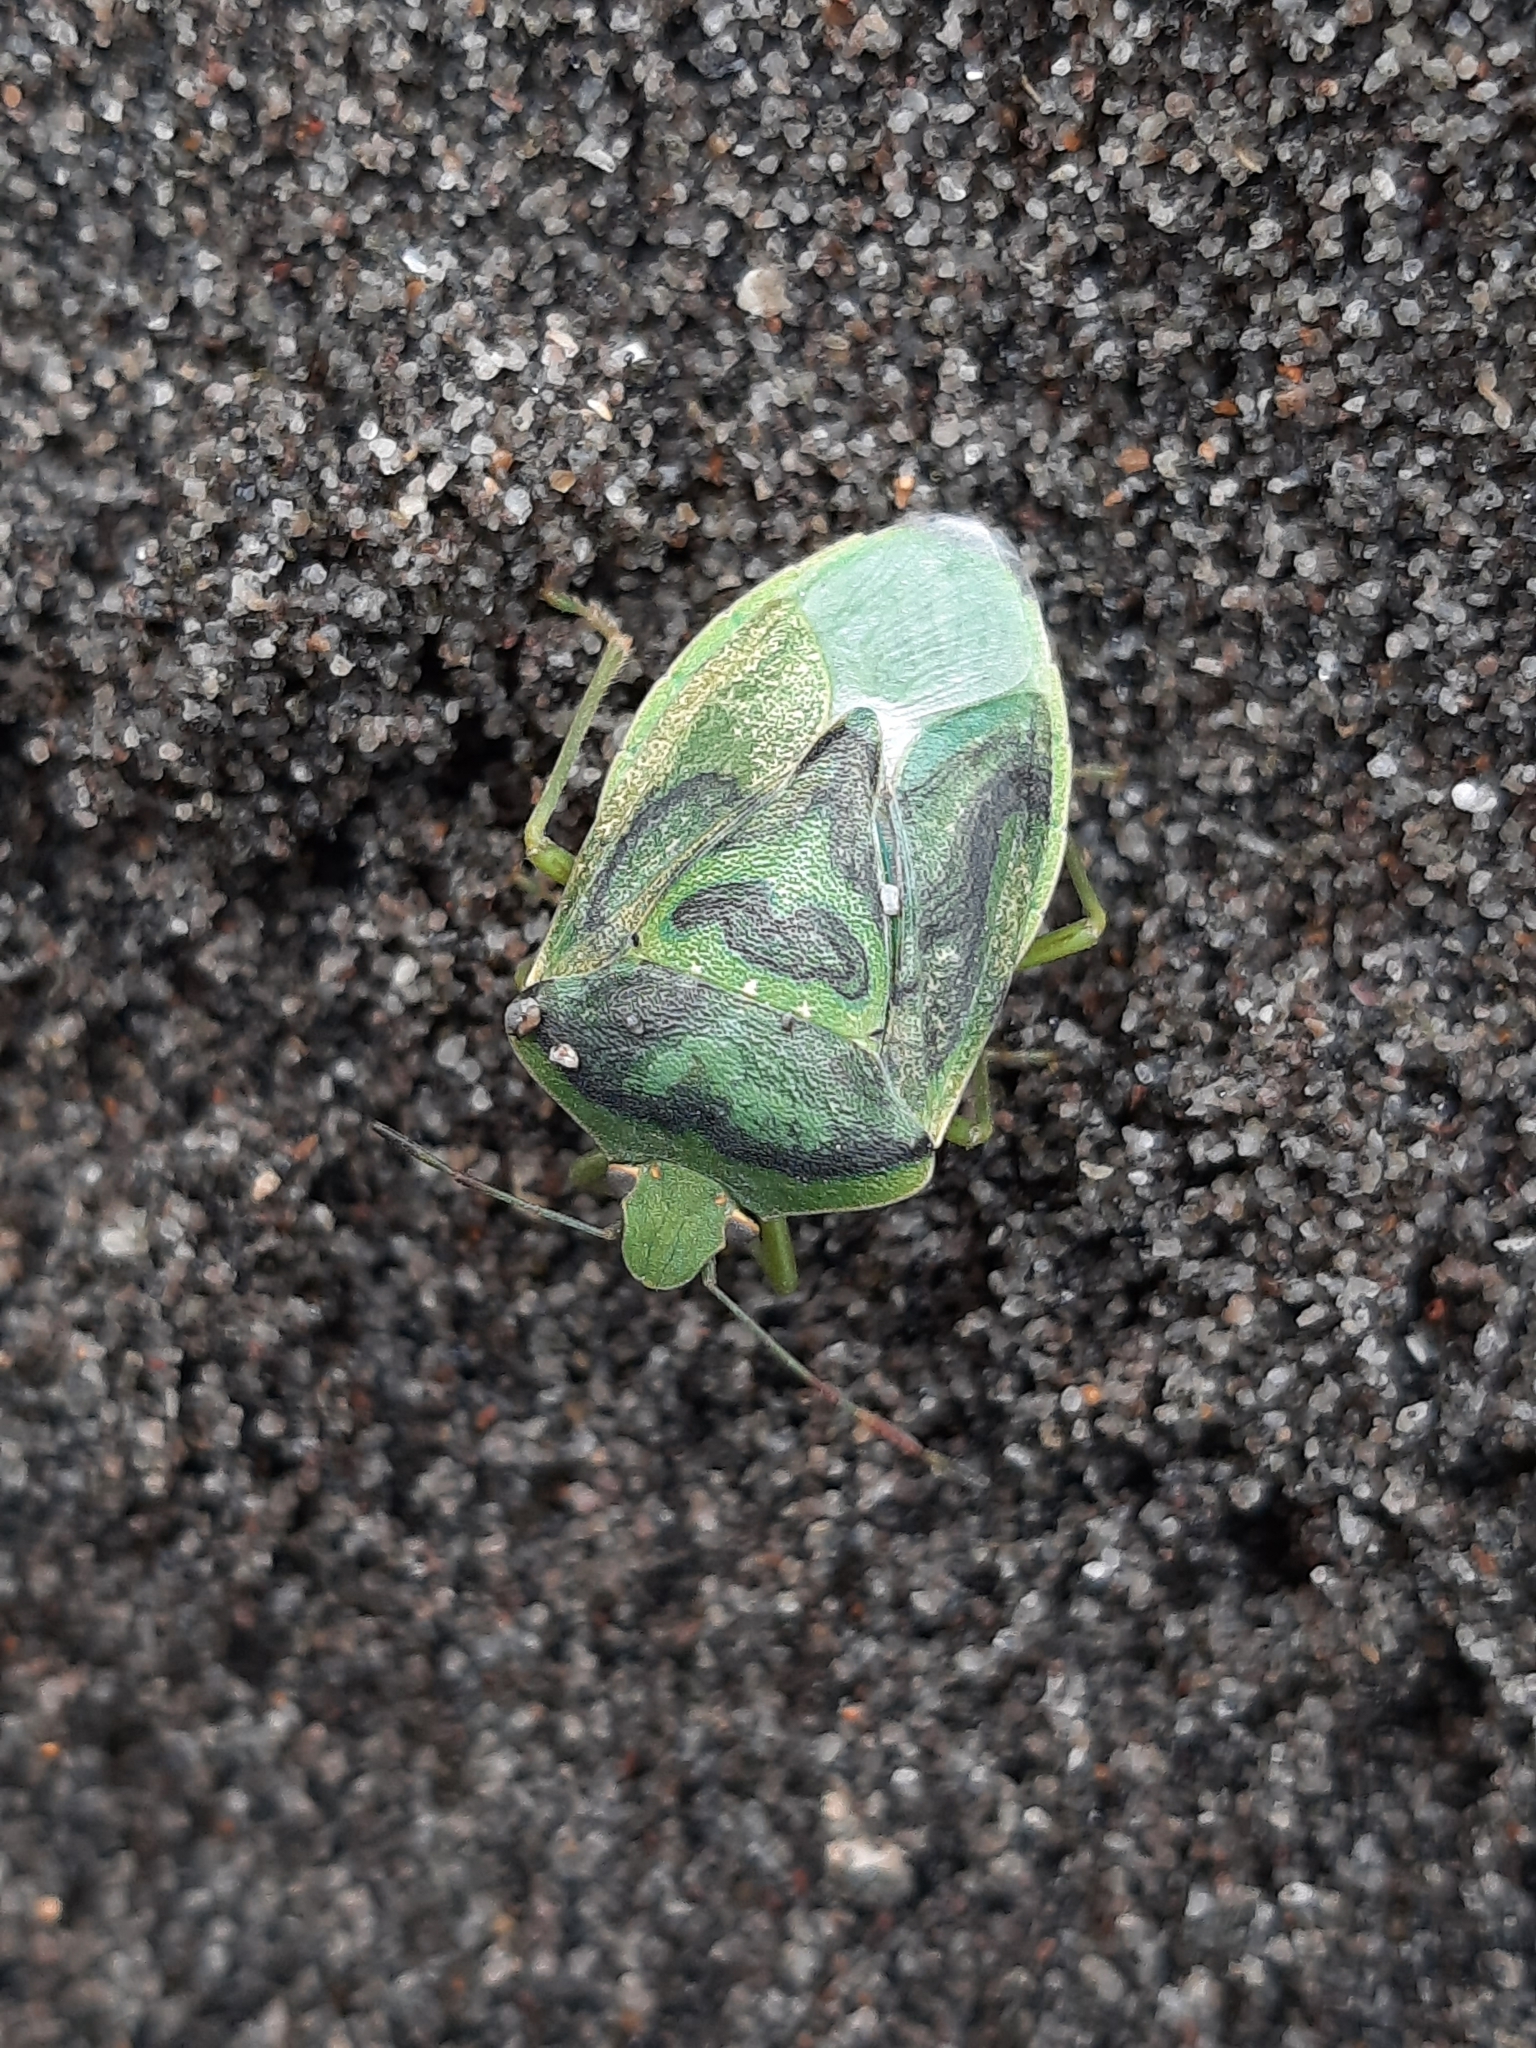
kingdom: Animalia
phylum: Arthropoda
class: Insecta
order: Hemiptera
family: Pentatomidae
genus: Nezara
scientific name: Nezara viridula
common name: Southern green stink bug
